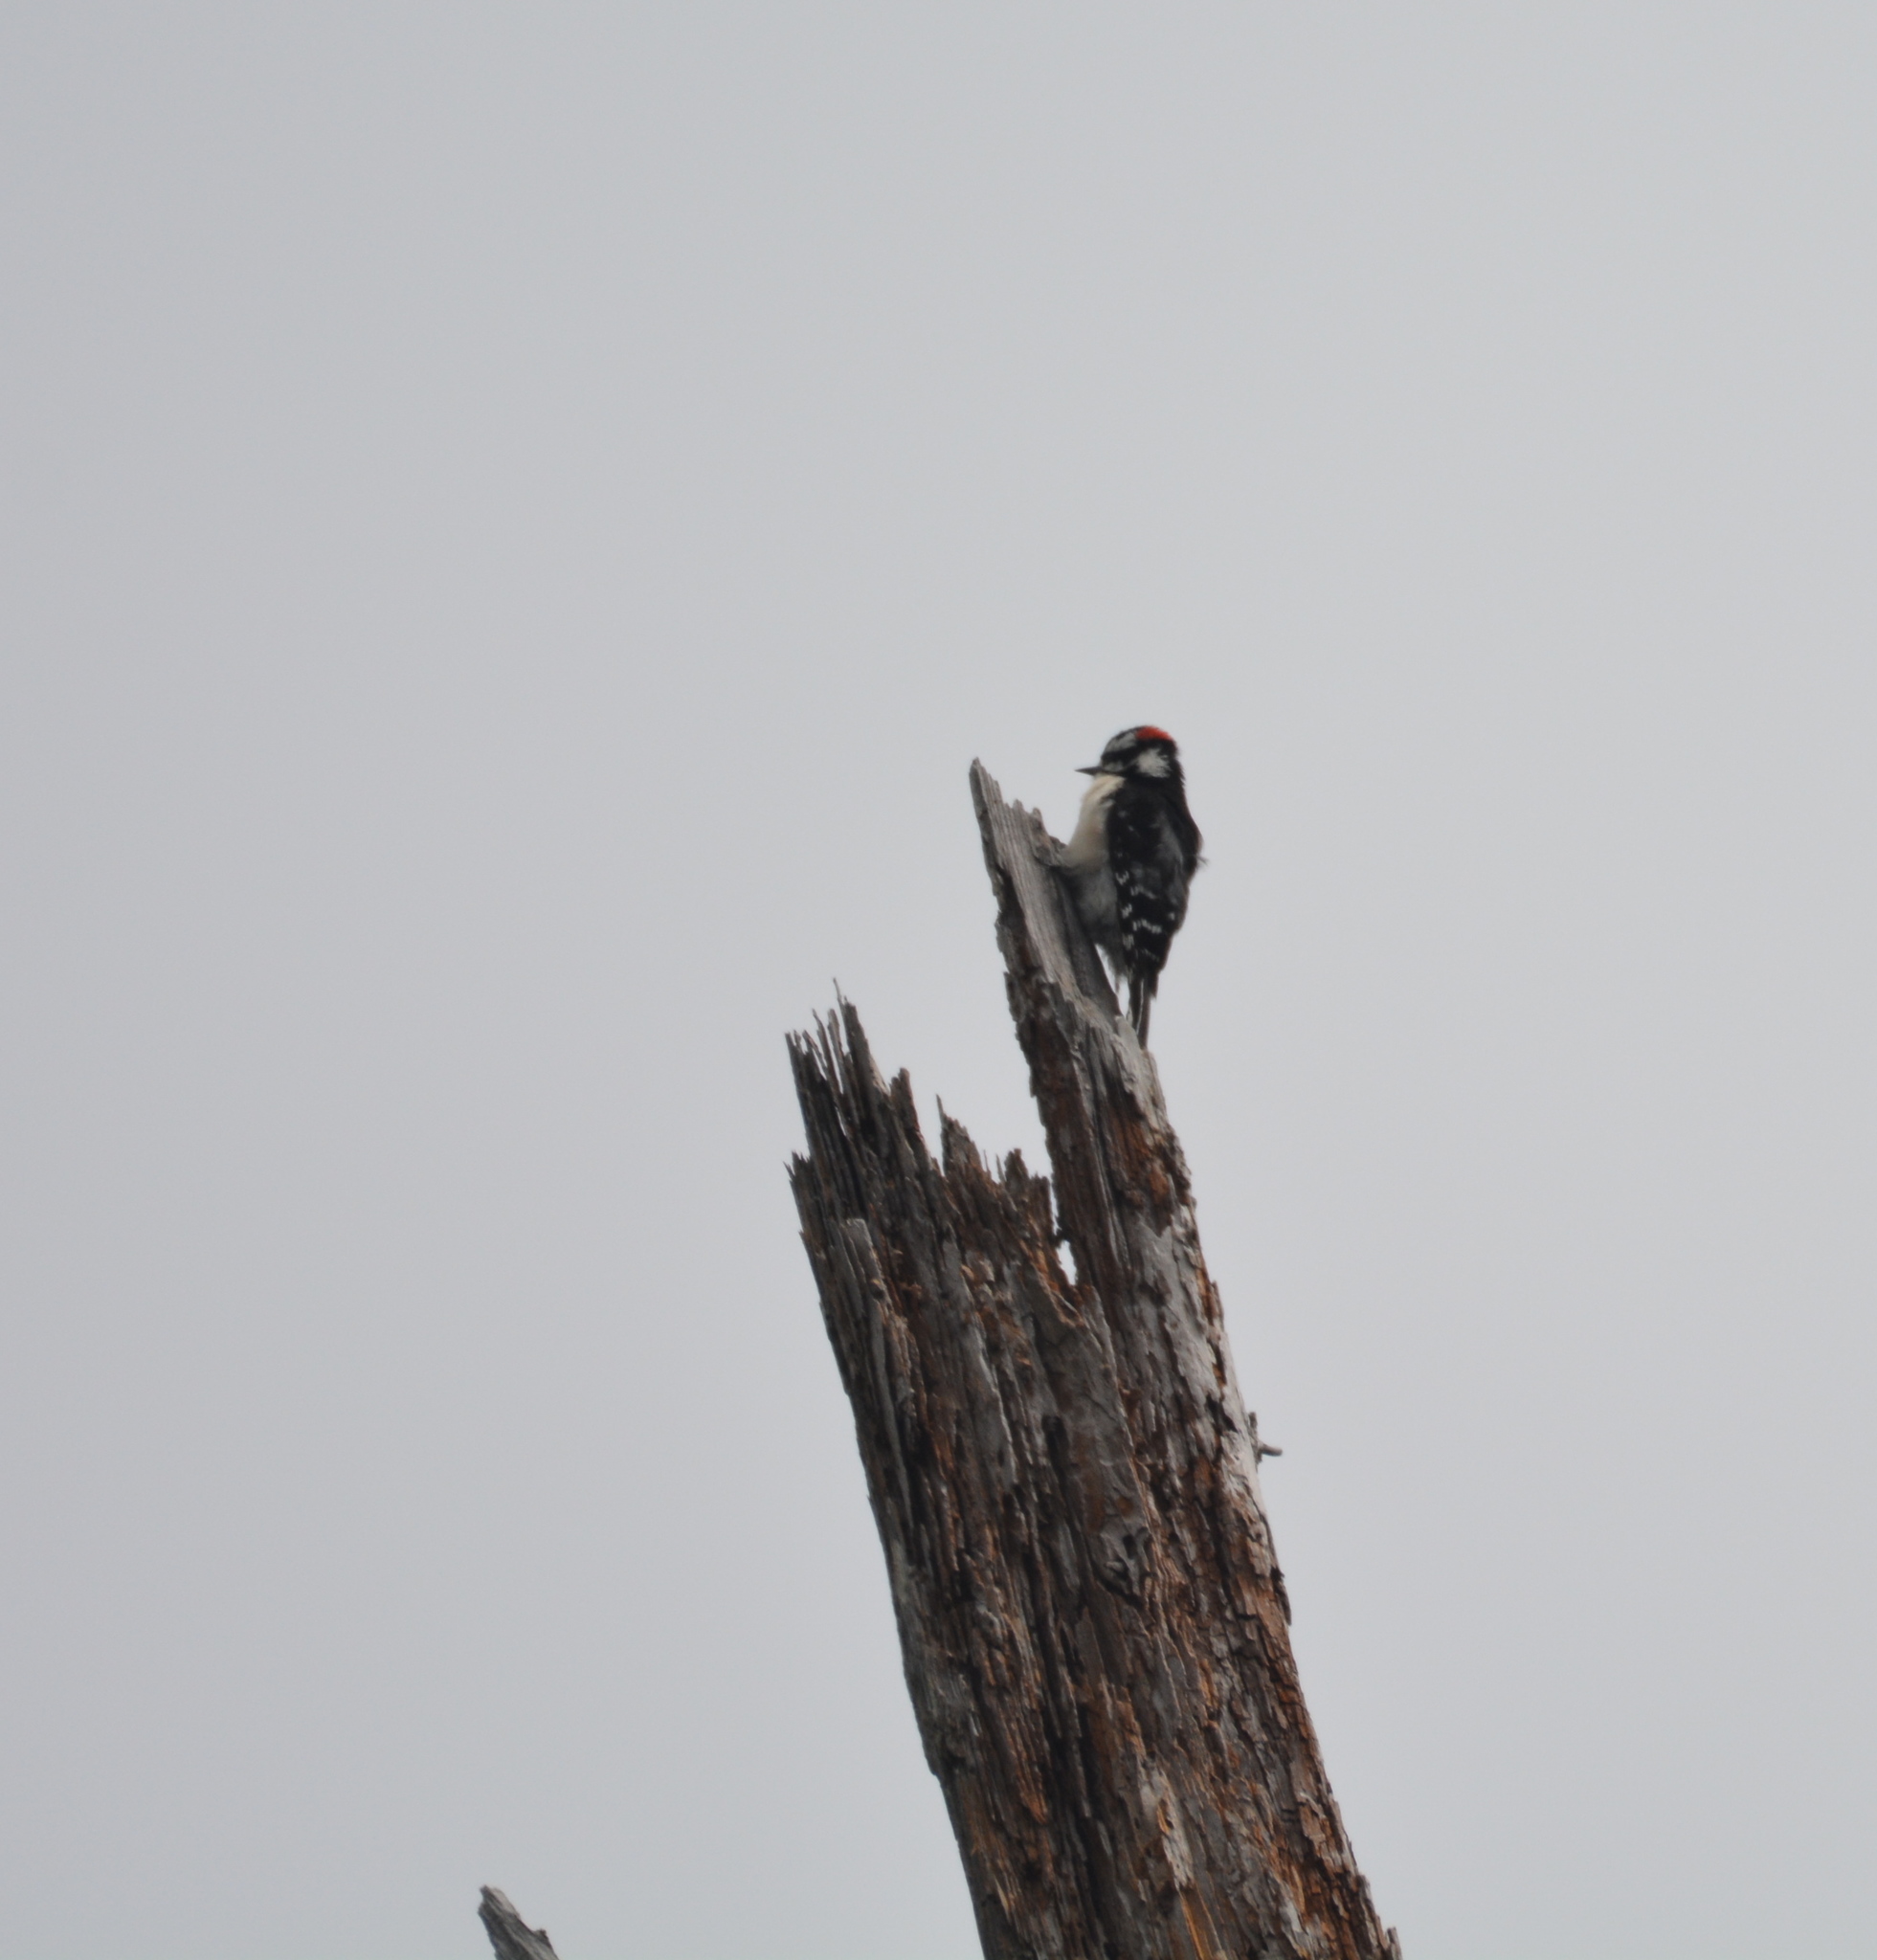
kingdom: Animalia
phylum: Chordata
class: Aves
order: Piciformes
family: Picidae
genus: Dryobates
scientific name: Dryobates pubescens
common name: Downy woodpecker
